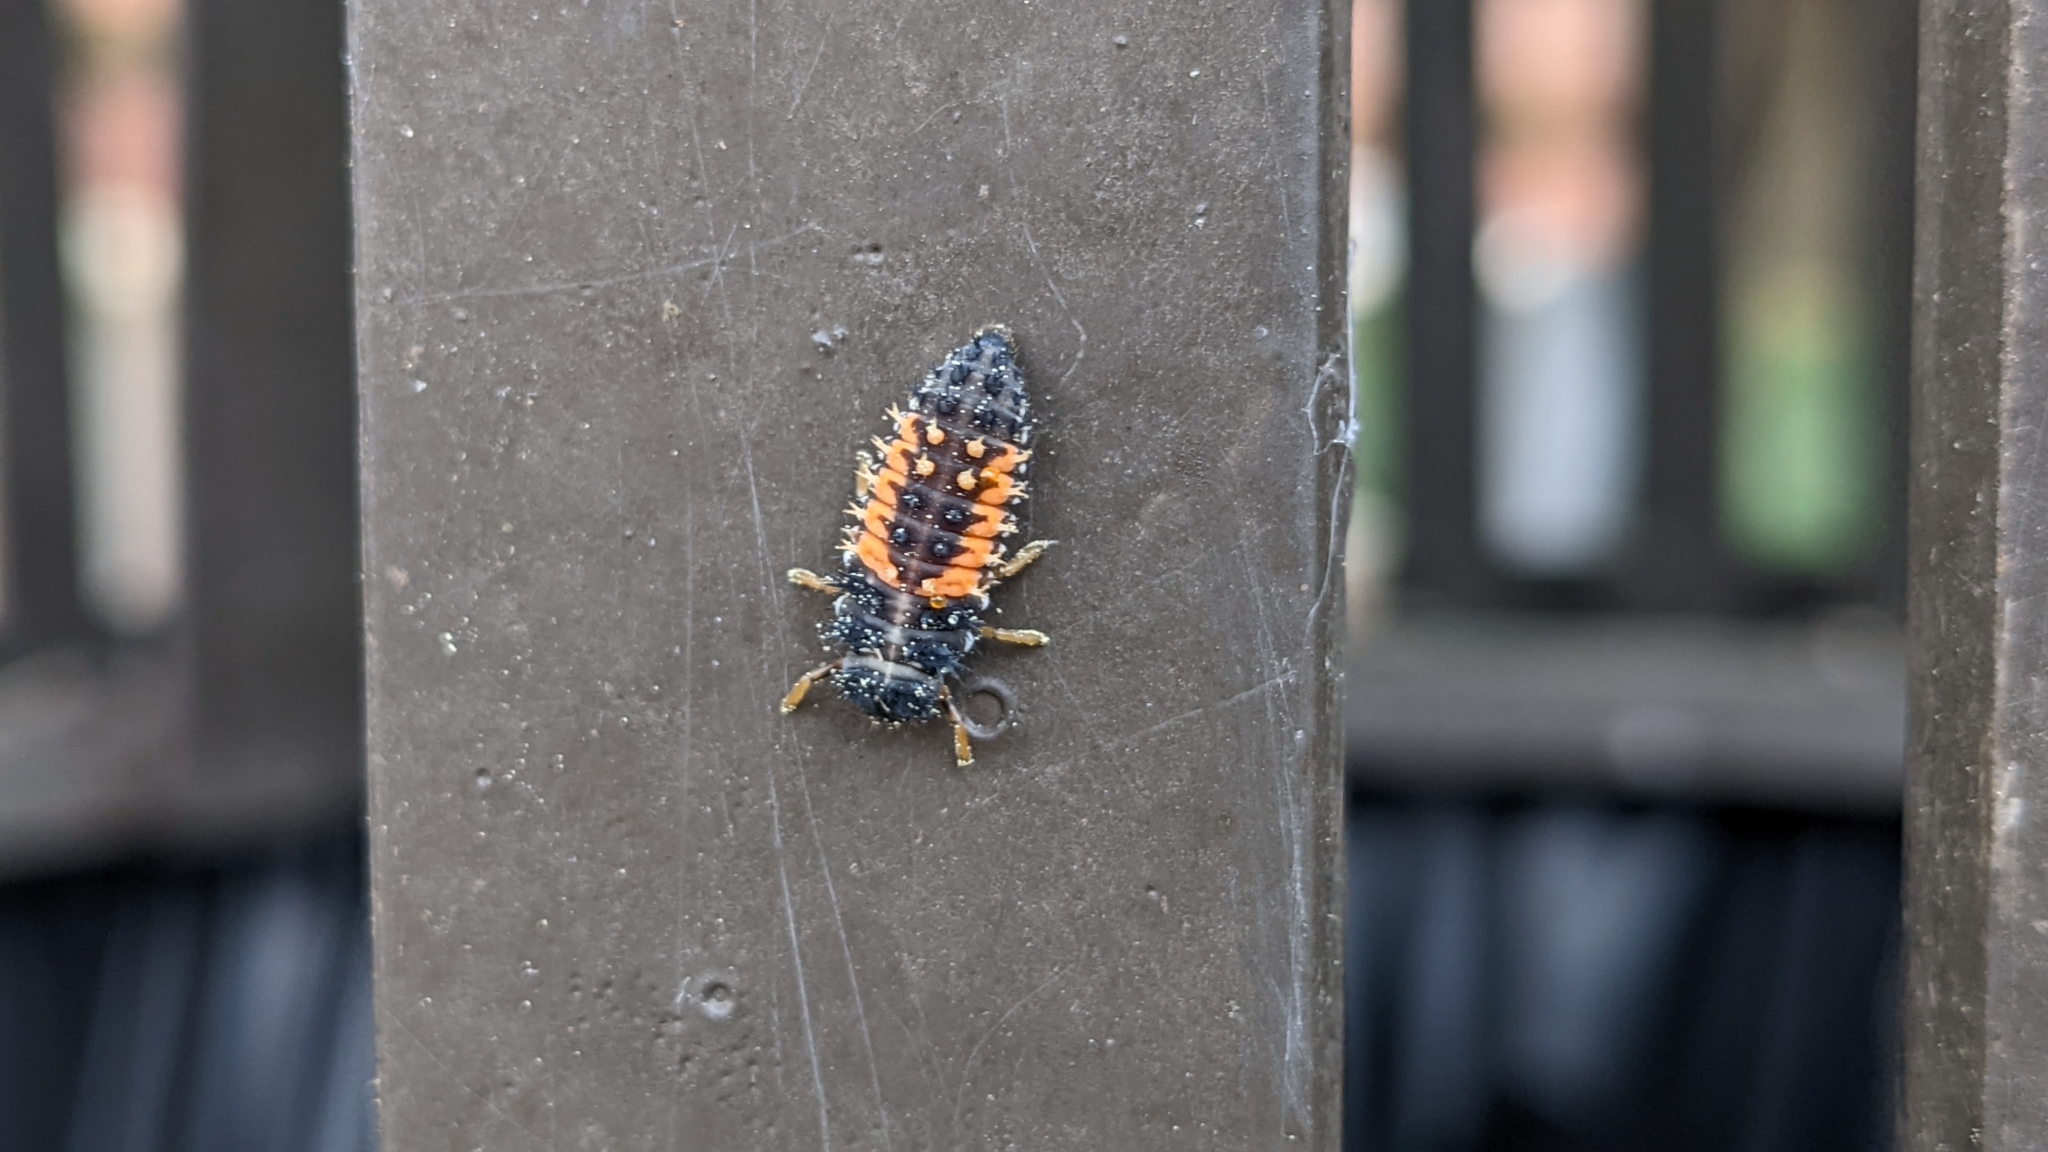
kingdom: Animalia
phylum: Arthropoda
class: Insecta
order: Coleoptera
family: Coccinellidae
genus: Harmonia
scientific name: Harmonia axyridis
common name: Harlequin ladybird
